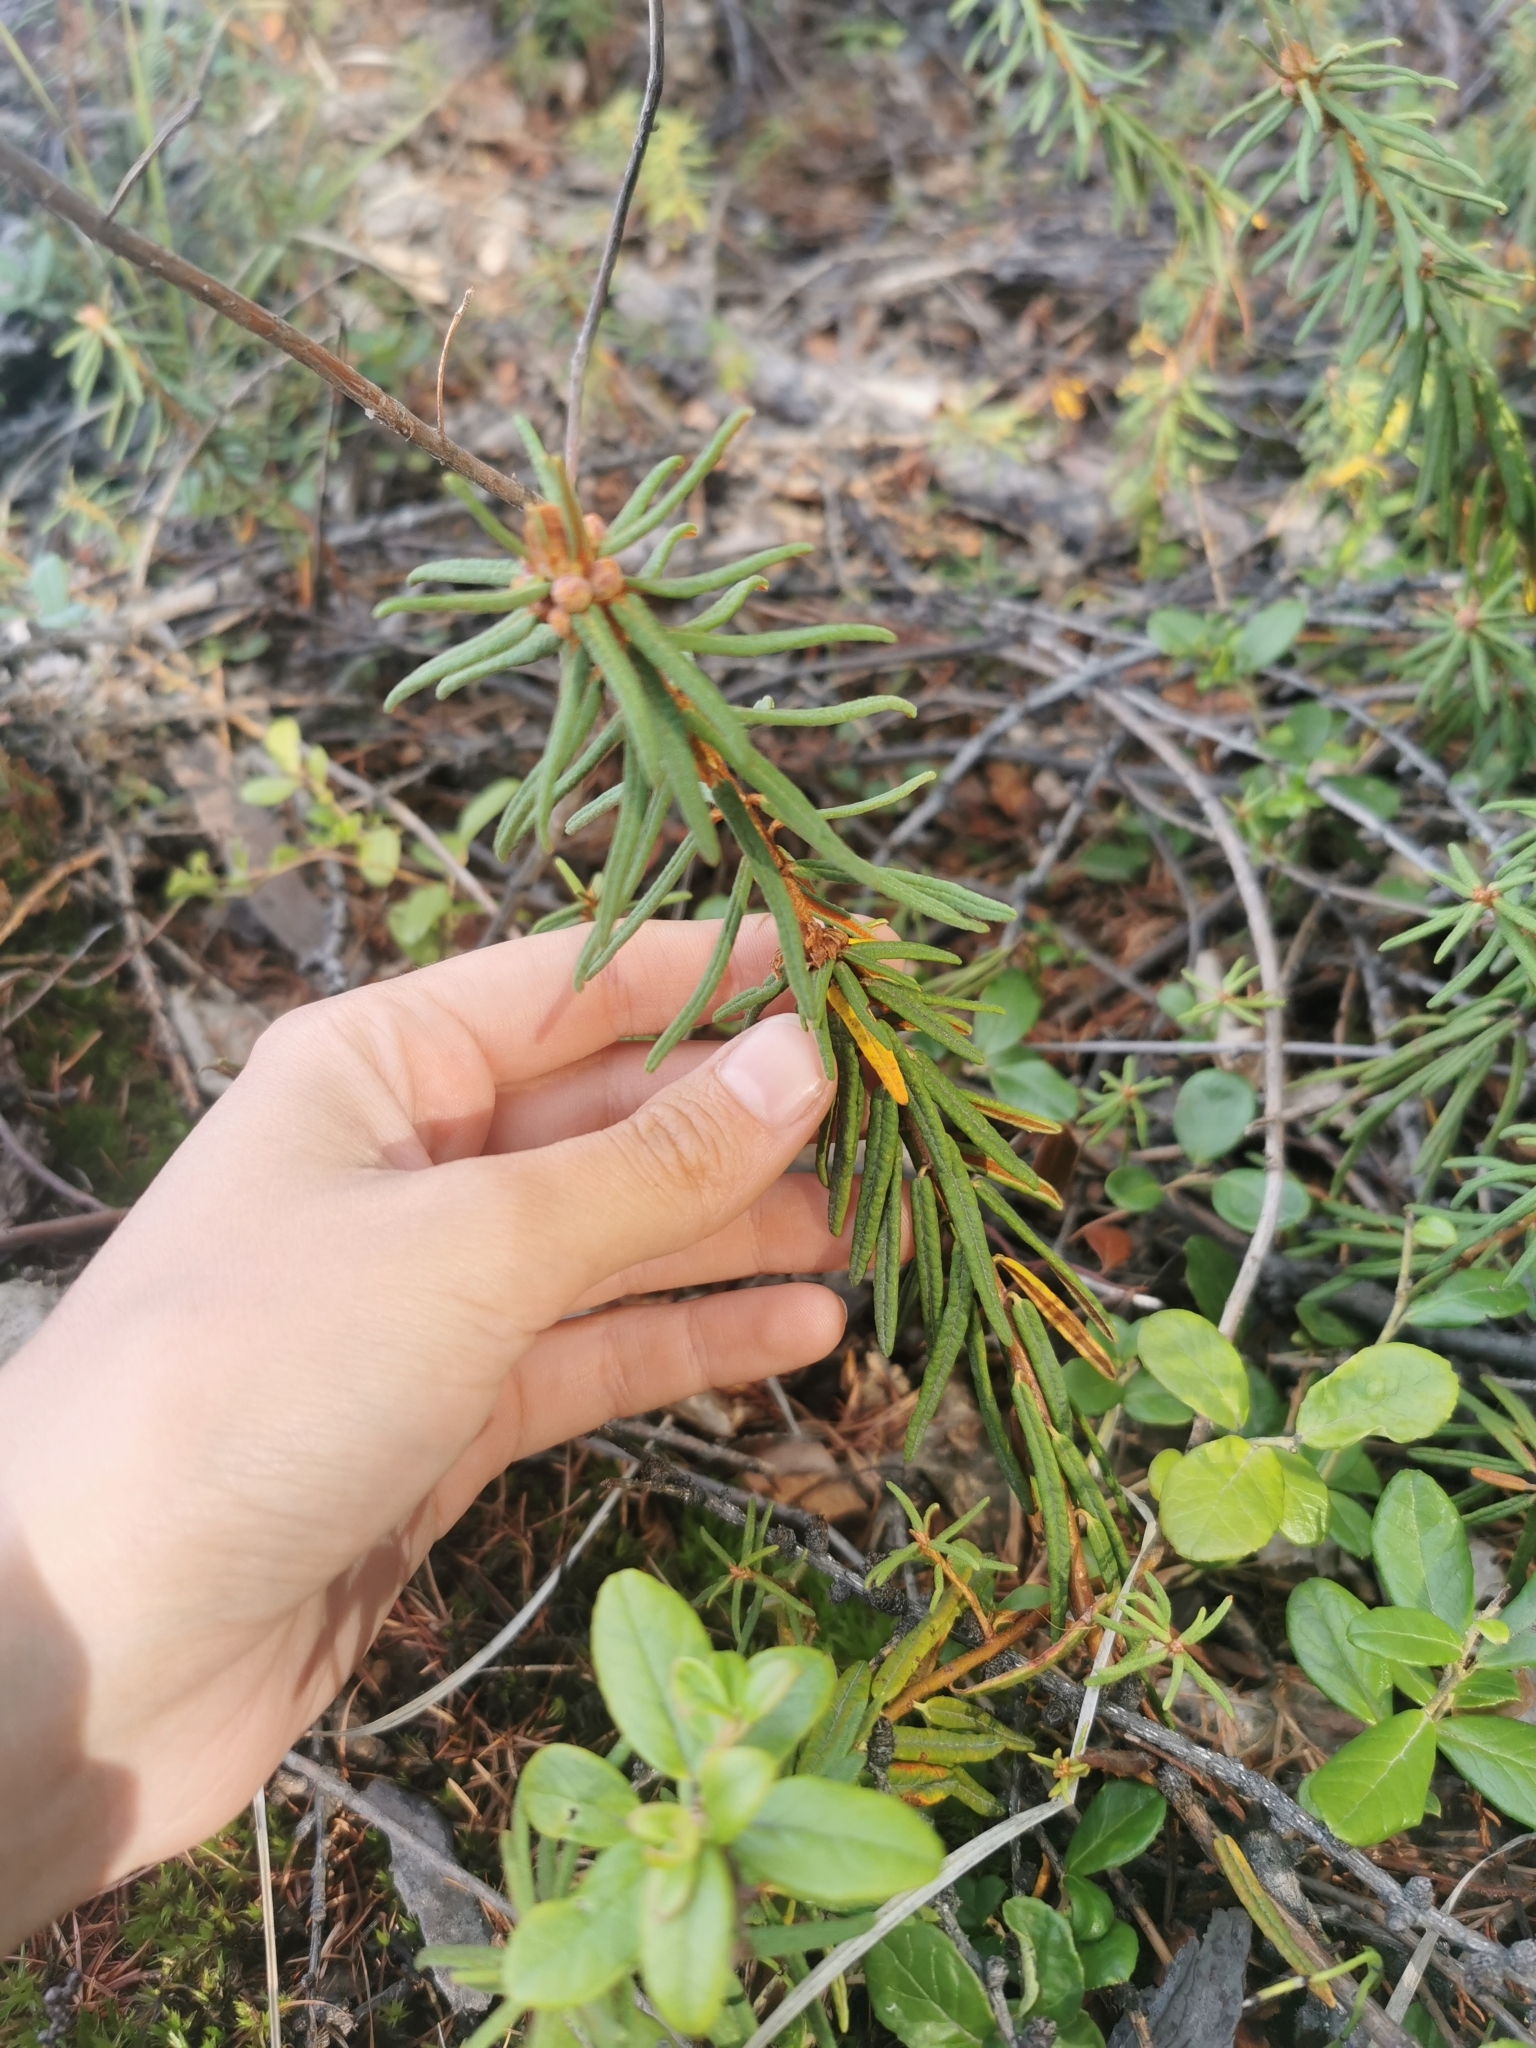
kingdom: Plantae
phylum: Tracheophyta
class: Magnoliopsida
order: Ericales
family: Ericaceae
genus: Rhododendron
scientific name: Rhododendron tomentosum
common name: Marsh labrador tea
